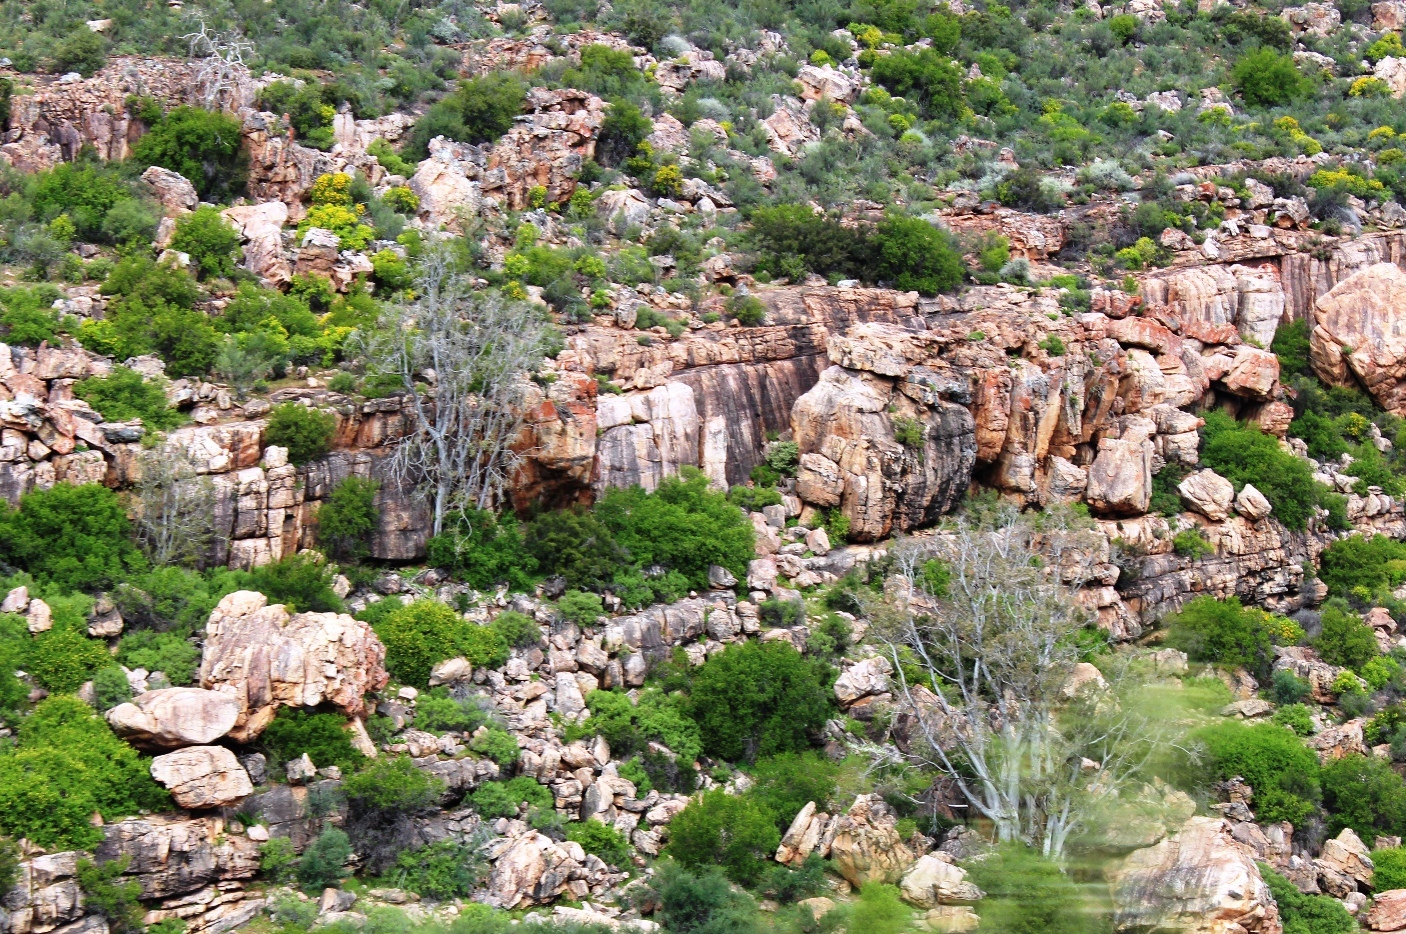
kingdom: Plantae
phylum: Tracheophyta
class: Magnoliopsida
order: Rosales
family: Moraceae
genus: Ficus
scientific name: Ficus cordata
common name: Namaqua rock fig
